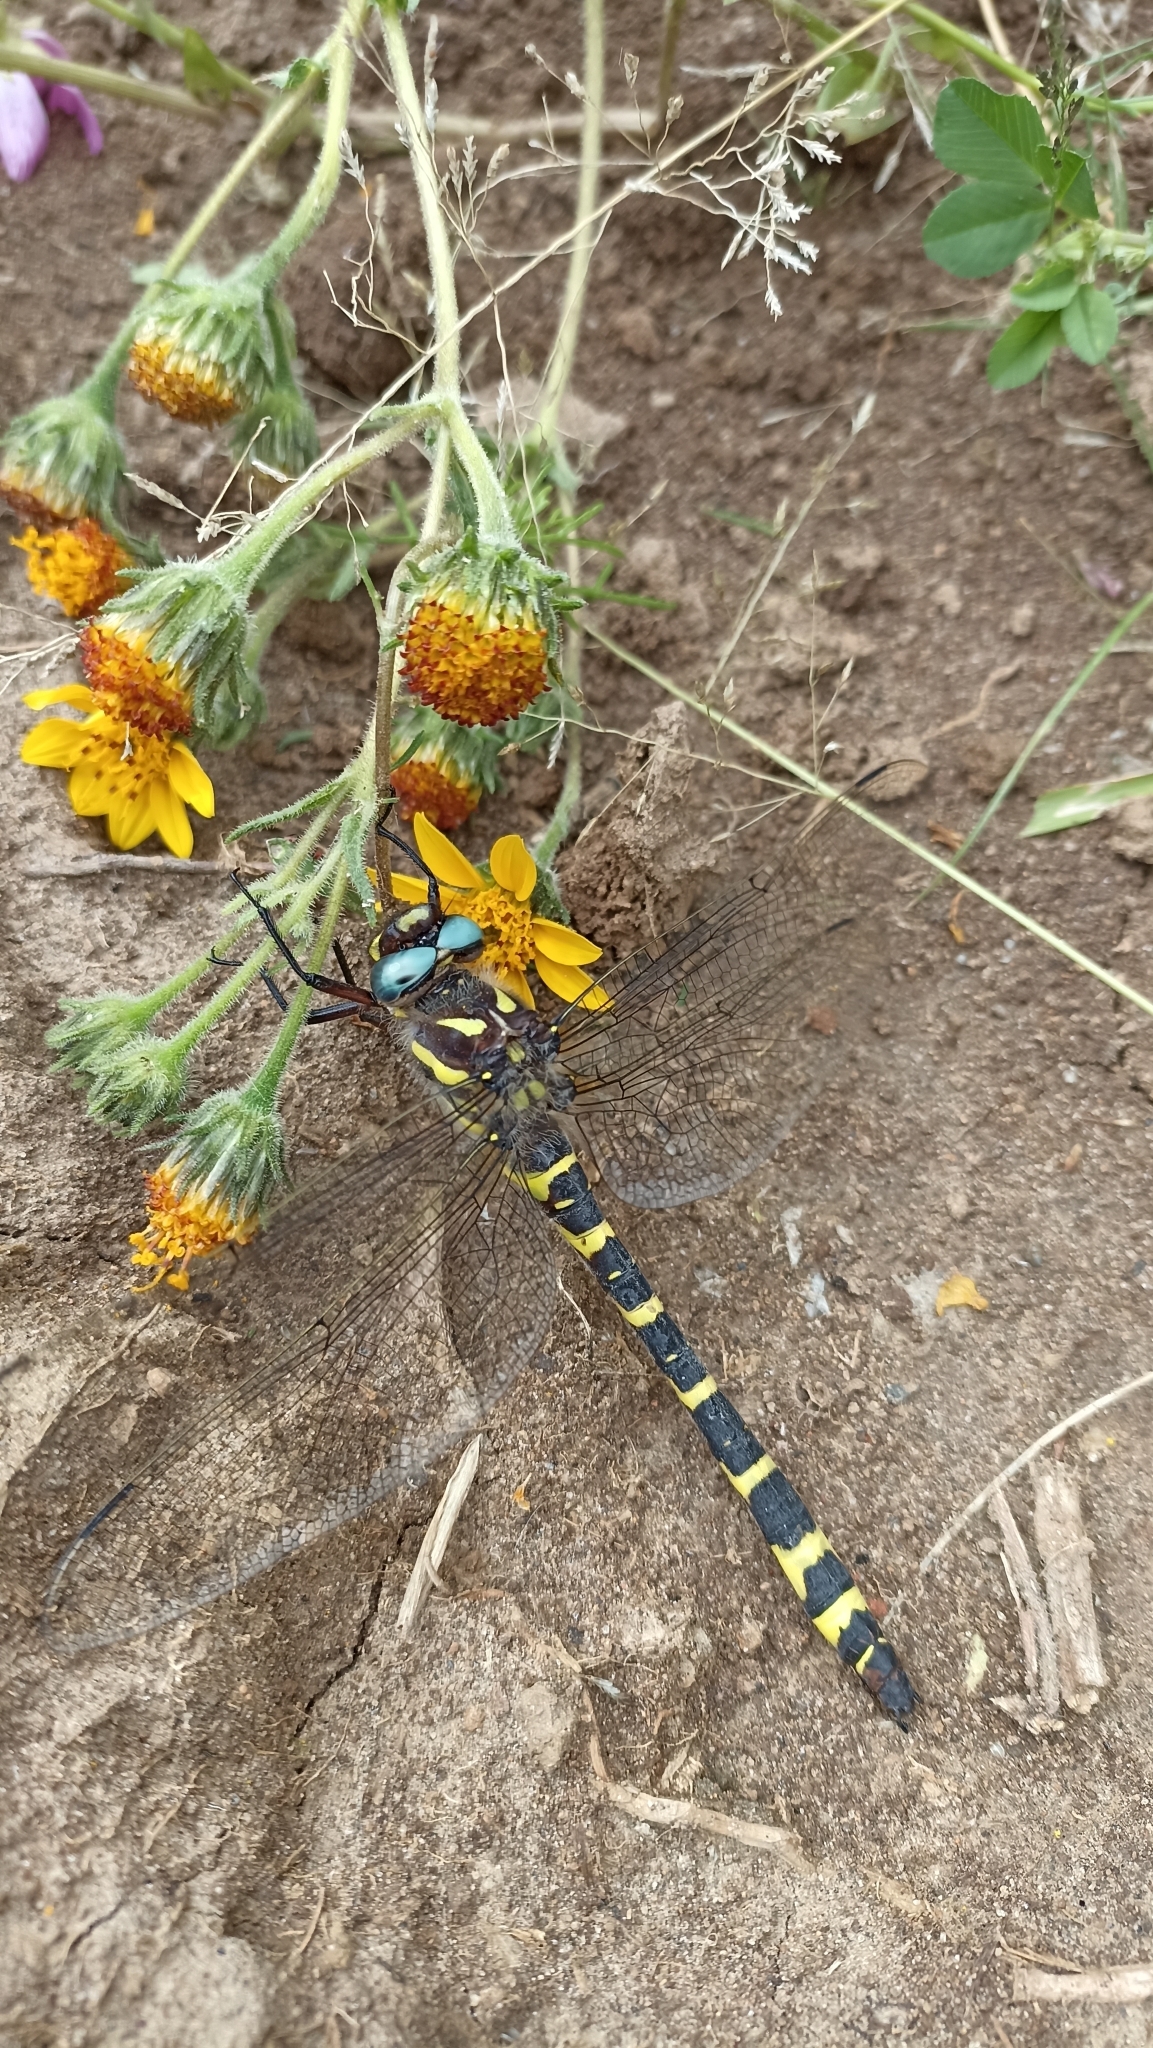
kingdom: Animalia
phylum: Arthropoda
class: Insecta
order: Odonata
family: Cordulegastridae
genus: Cordulegaster
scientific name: Cordulegaster diadema
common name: Apache spiketail
